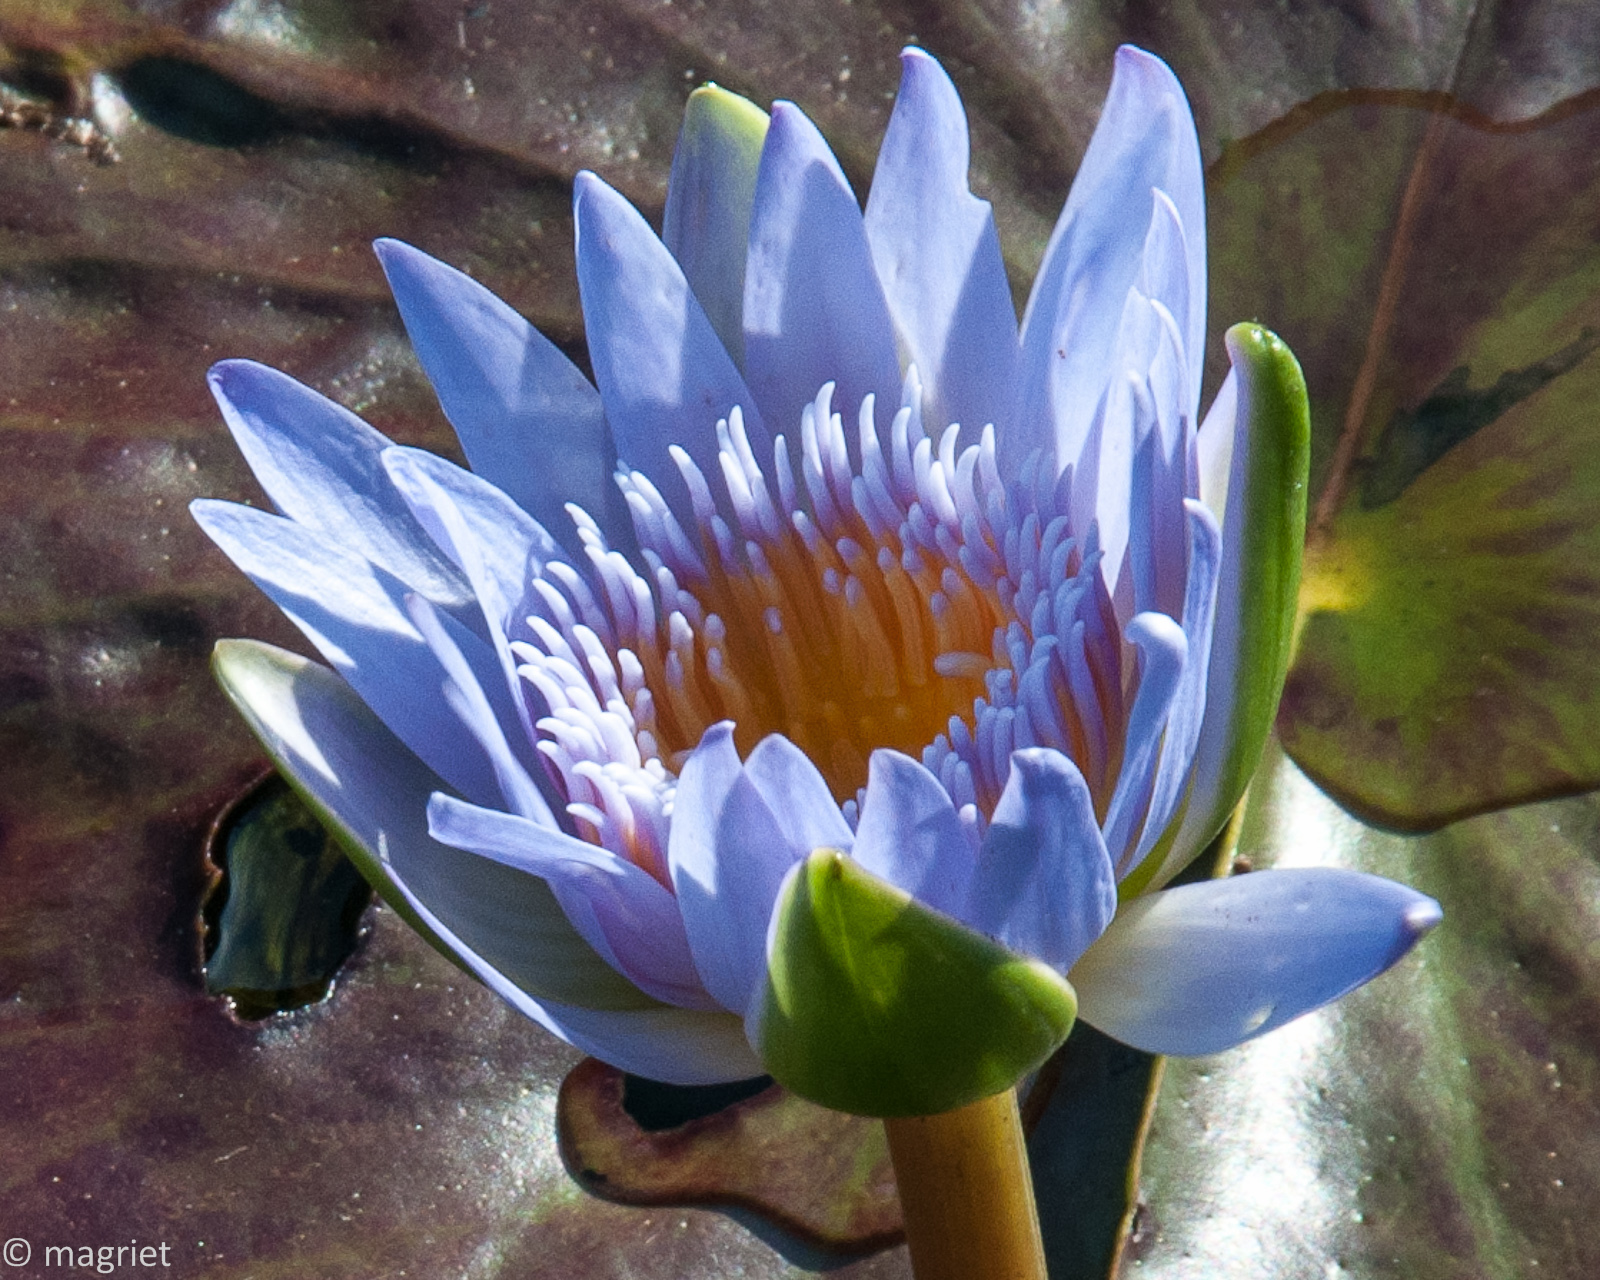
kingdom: Plantae
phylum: Tracheophyta
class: Magnoliopsida
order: Nymphaeales
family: Nymphaeaceae
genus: Nymphaea
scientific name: Nymphaea nouchali
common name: Blue lotus
